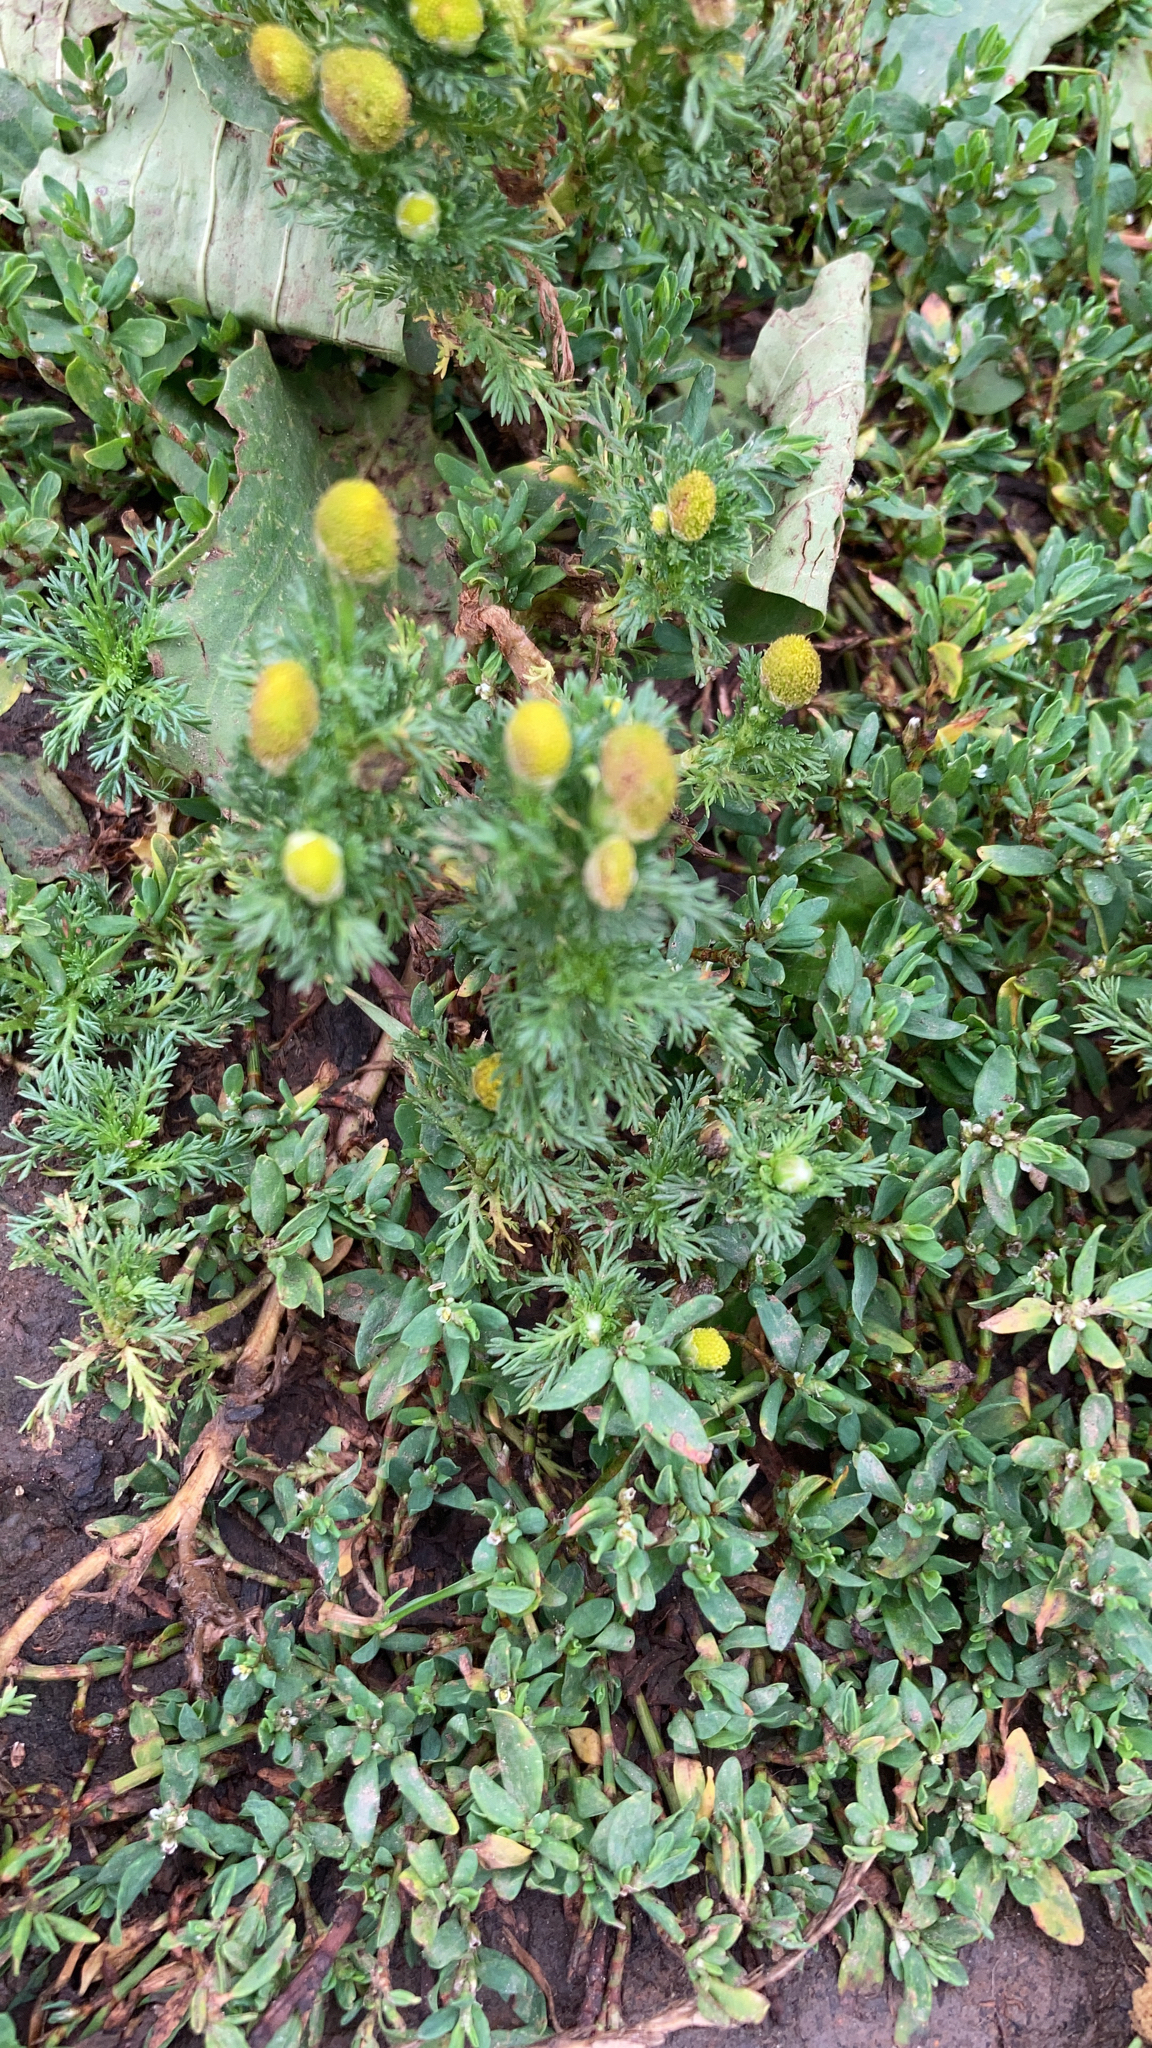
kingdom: Plantae
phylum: Tracheophyta
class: Magnoliopsida
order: Asterales
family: Asteraceae
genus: Matricaria
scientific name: Matricaria discoidea
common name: Disc mayweed
